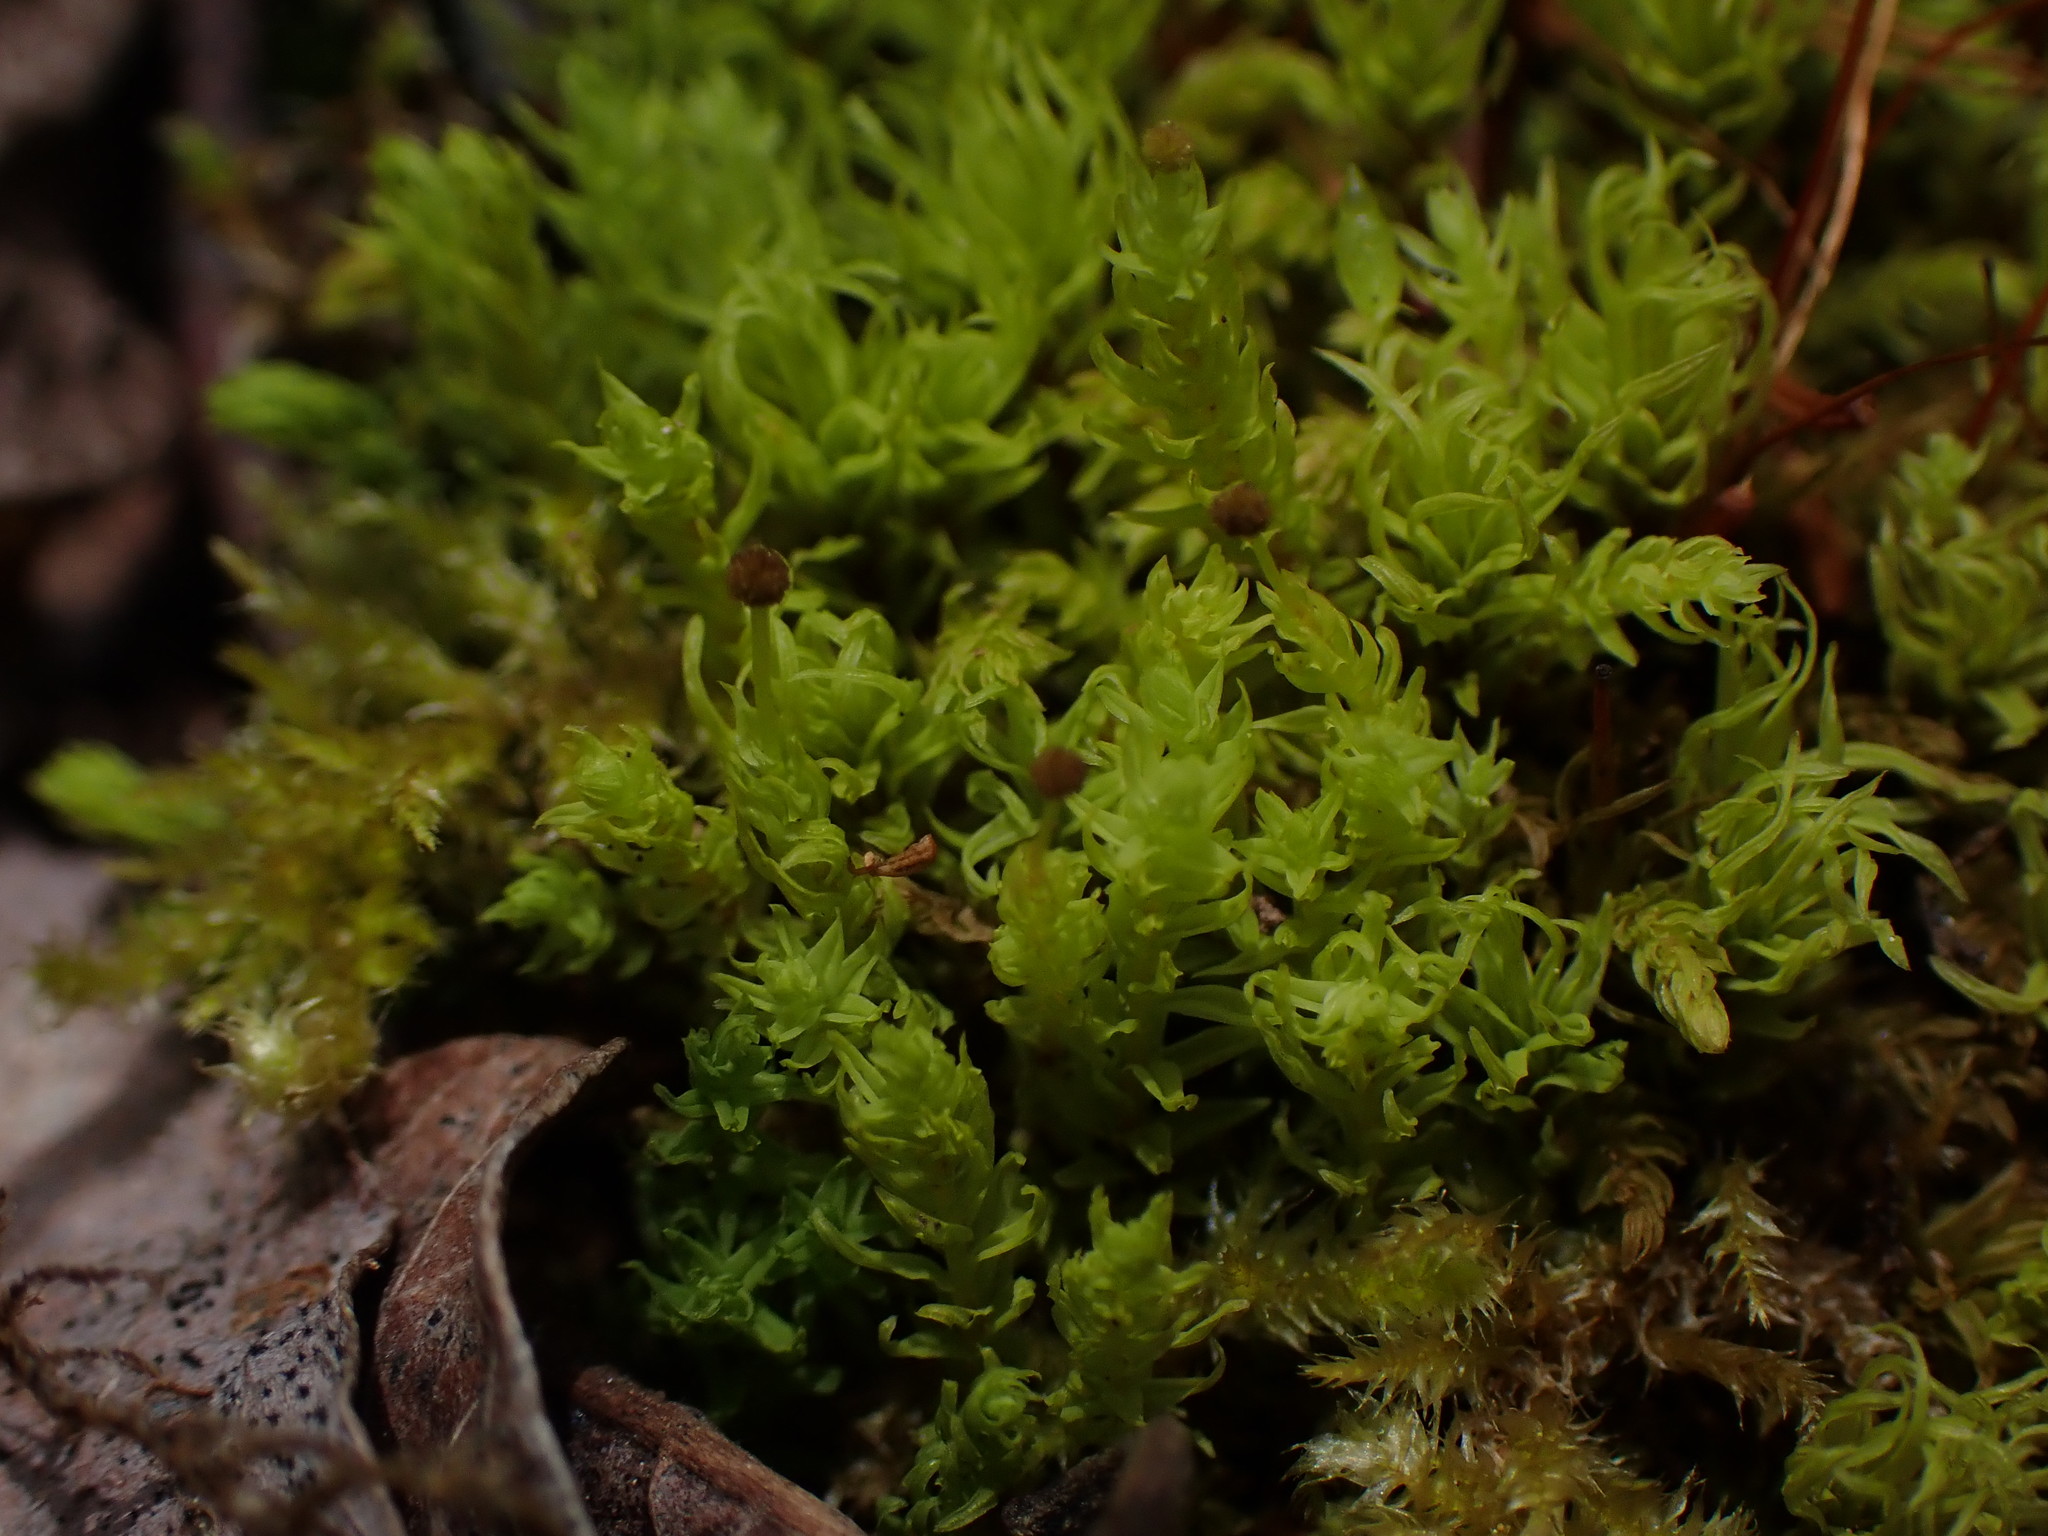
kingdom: Plantae
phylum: Bryophyta
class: Bryopsida
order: Aulacomniales
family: Aulacomniaceae
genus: Aulacomnium
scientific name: Aulacomnium androgynum
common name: Little groove moss
